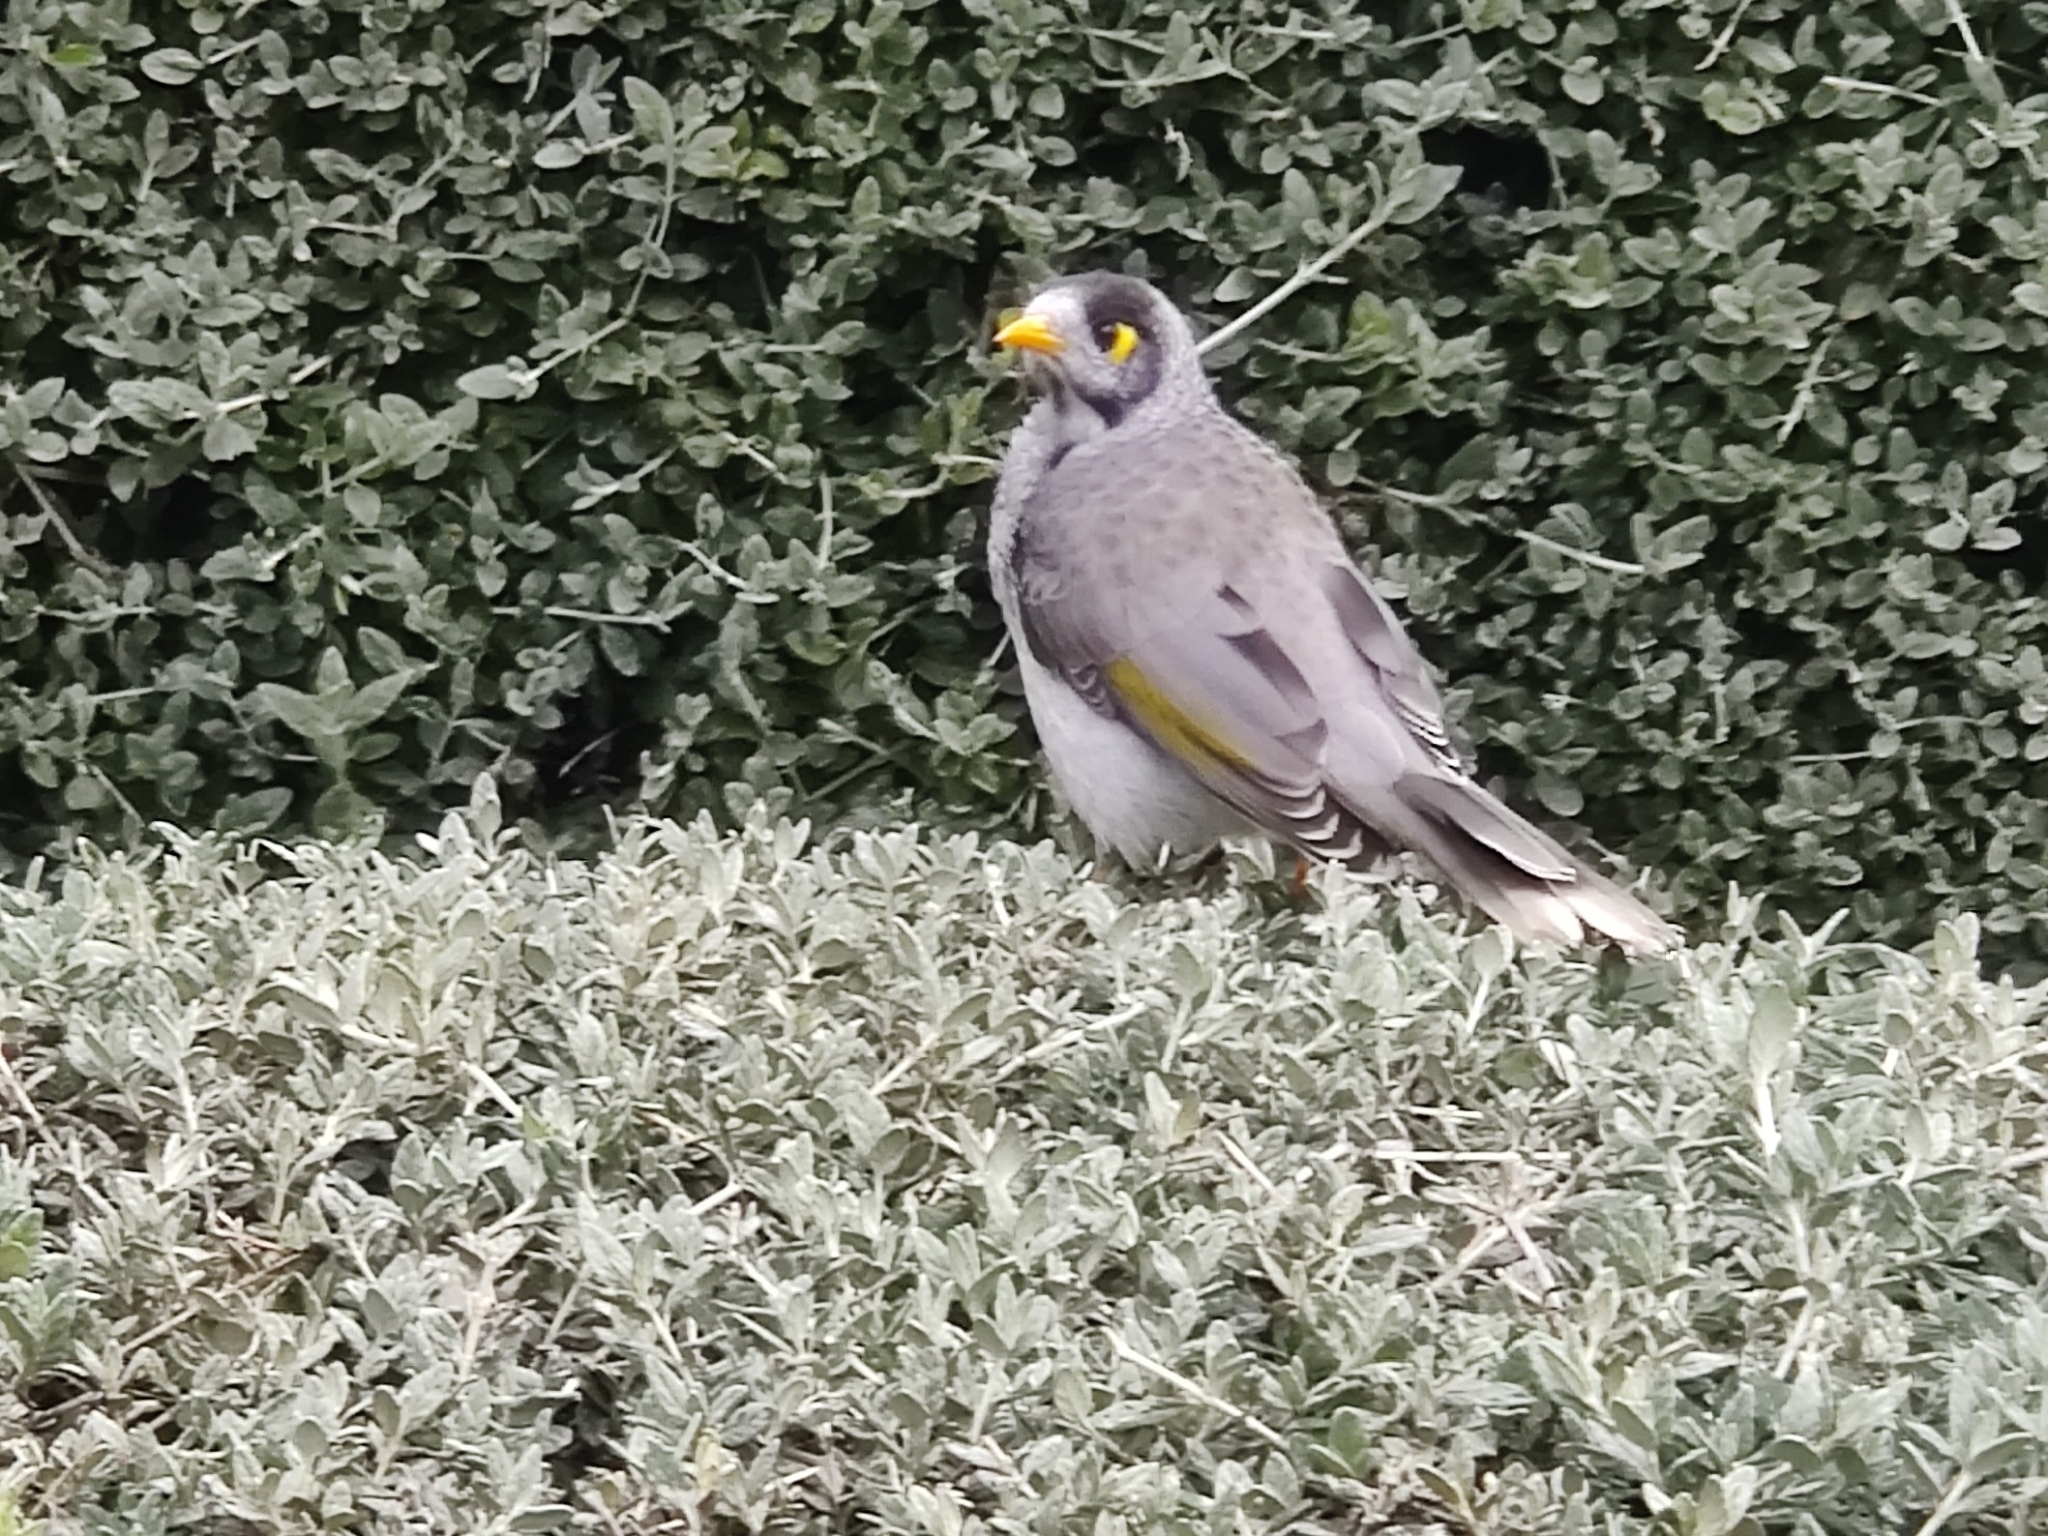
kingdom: Animalia
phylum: Chordata
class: Aves
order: Passeriformes
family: Meliphagidae
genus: Manorina
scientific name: Manorina melanocephala
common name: Noisy miner
